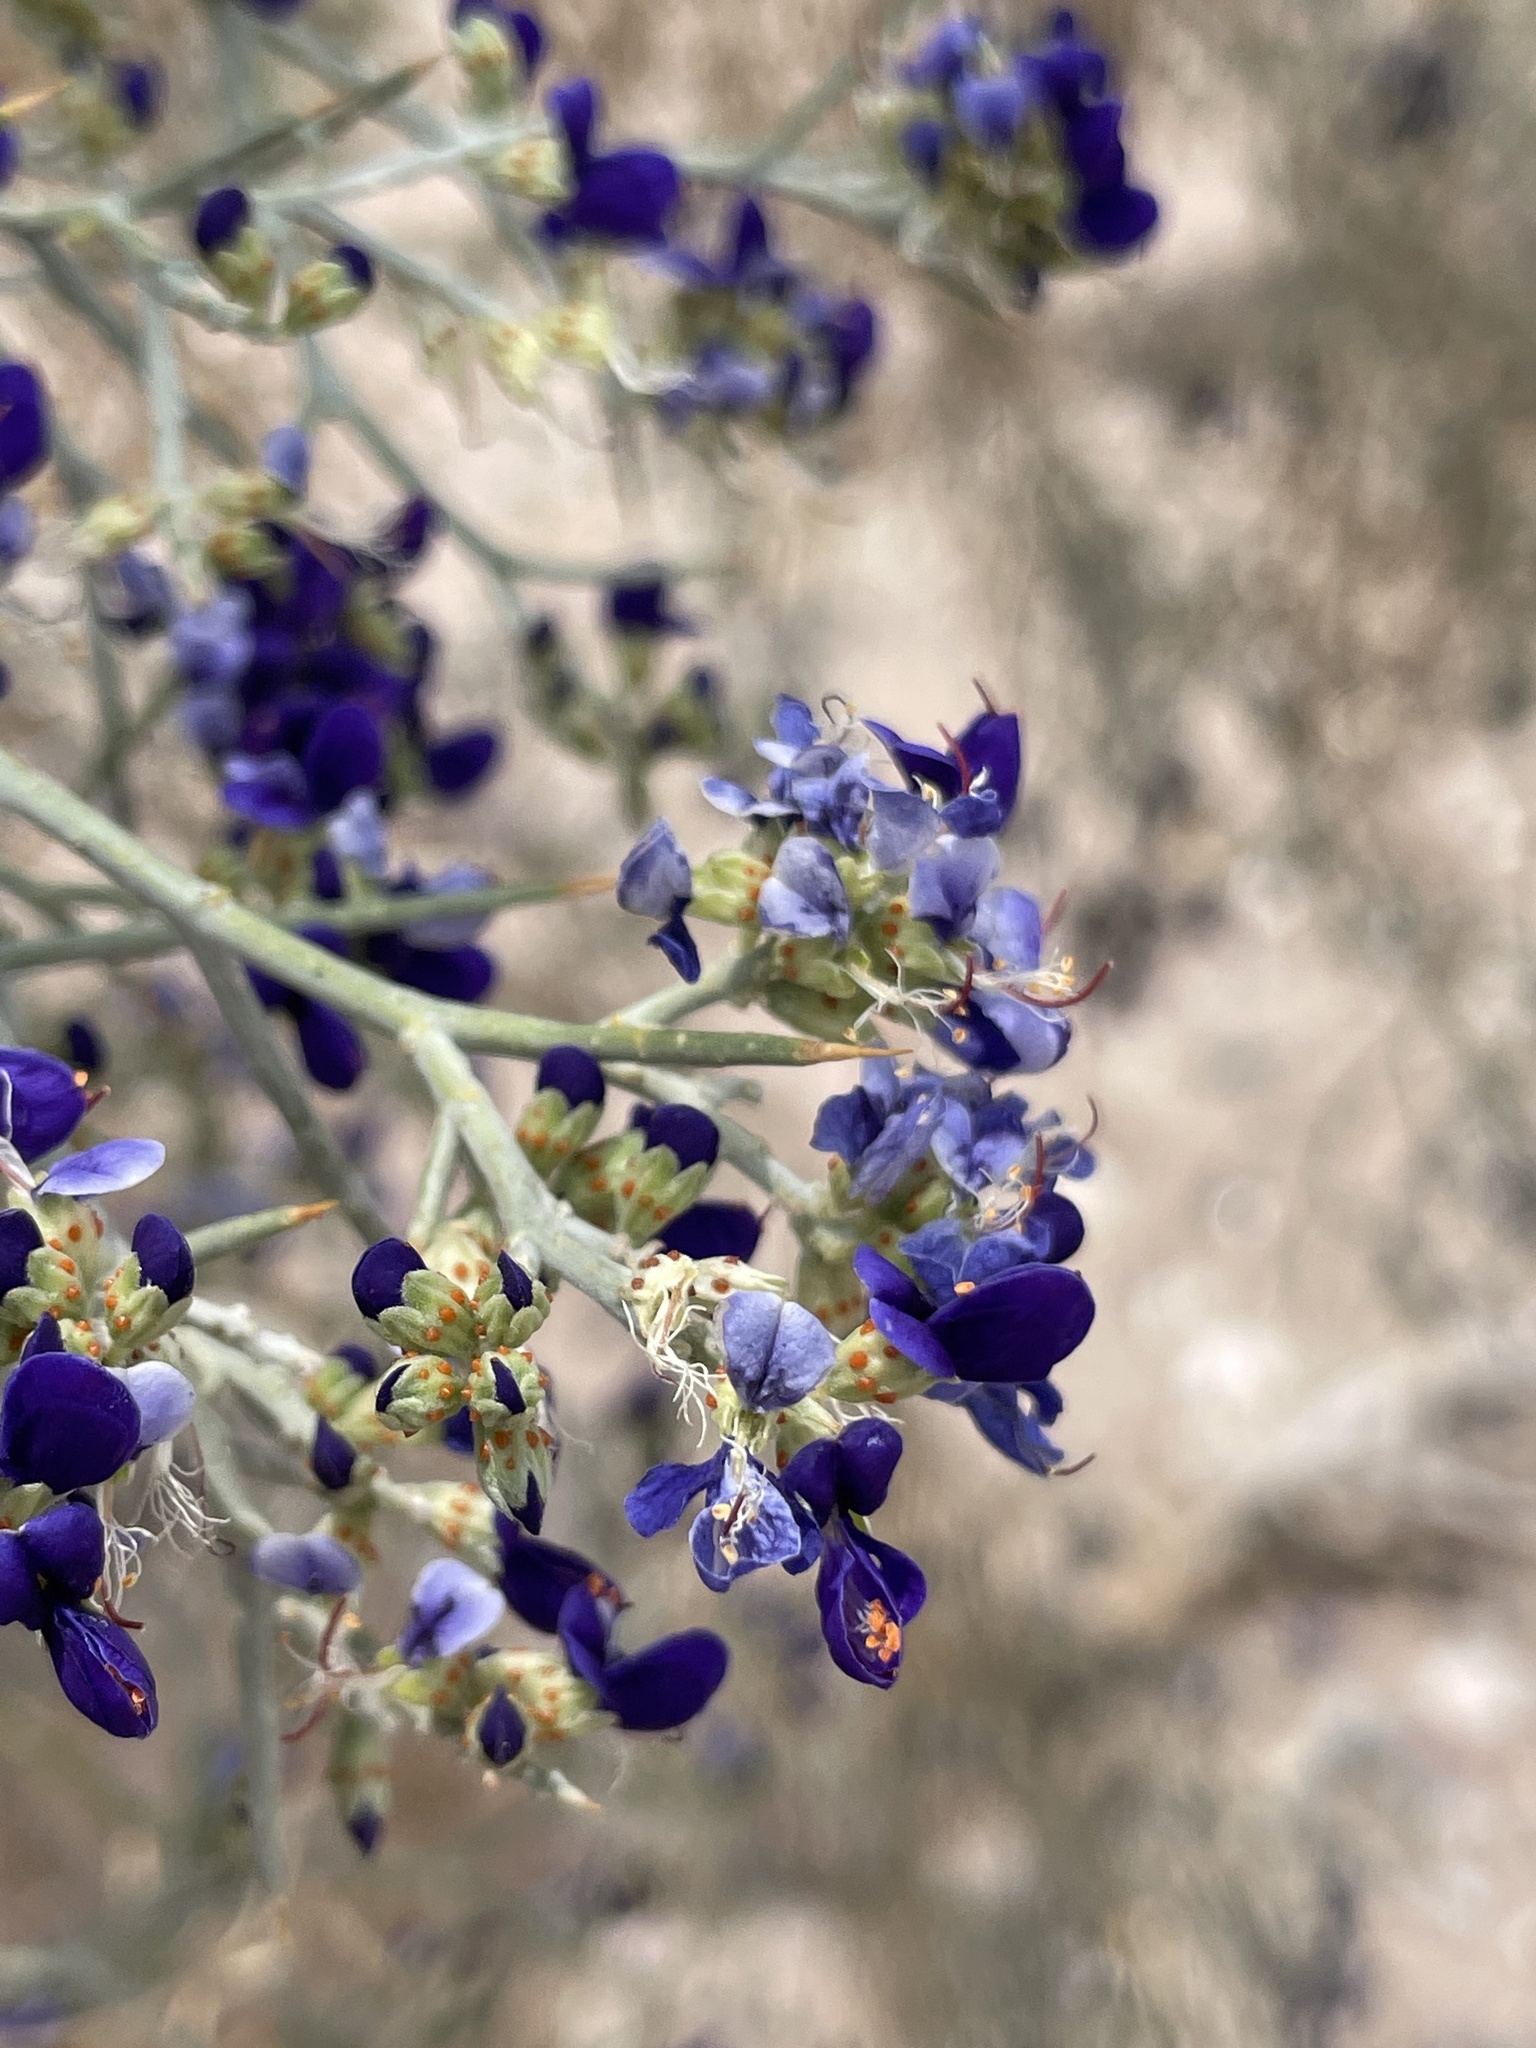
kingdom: Plantae
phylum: Tracheophyta
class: Magnoliopsida
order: Fabales
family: Fabaceae
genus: Psorothamnus
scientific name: Psorothamnus spinosus
